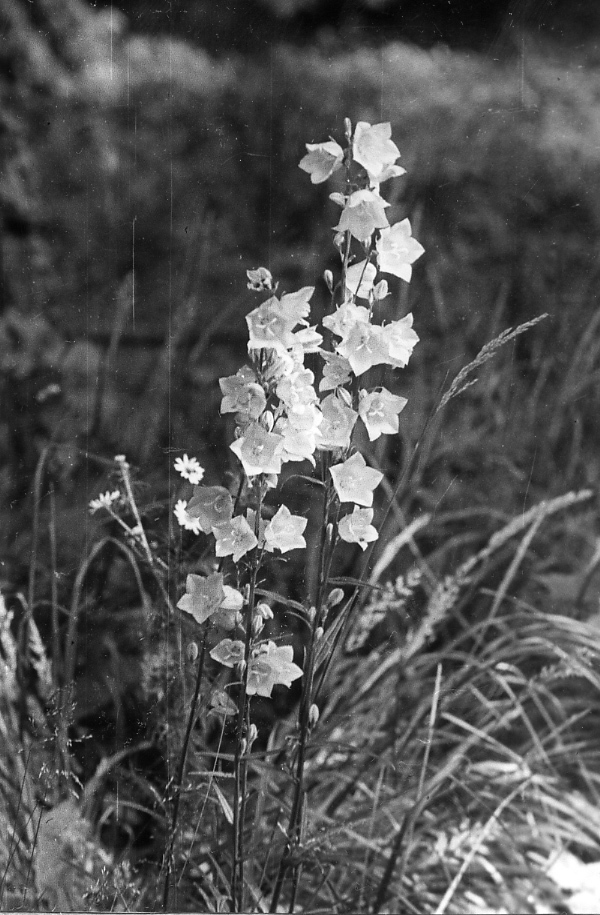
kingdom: Plantae
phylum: Tracheophyta
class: Magnoliopsida
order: Asterales
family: Campanulaceae
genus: Campanula
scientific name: Campanula persicifolia
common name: Peach-leaved bellflower
